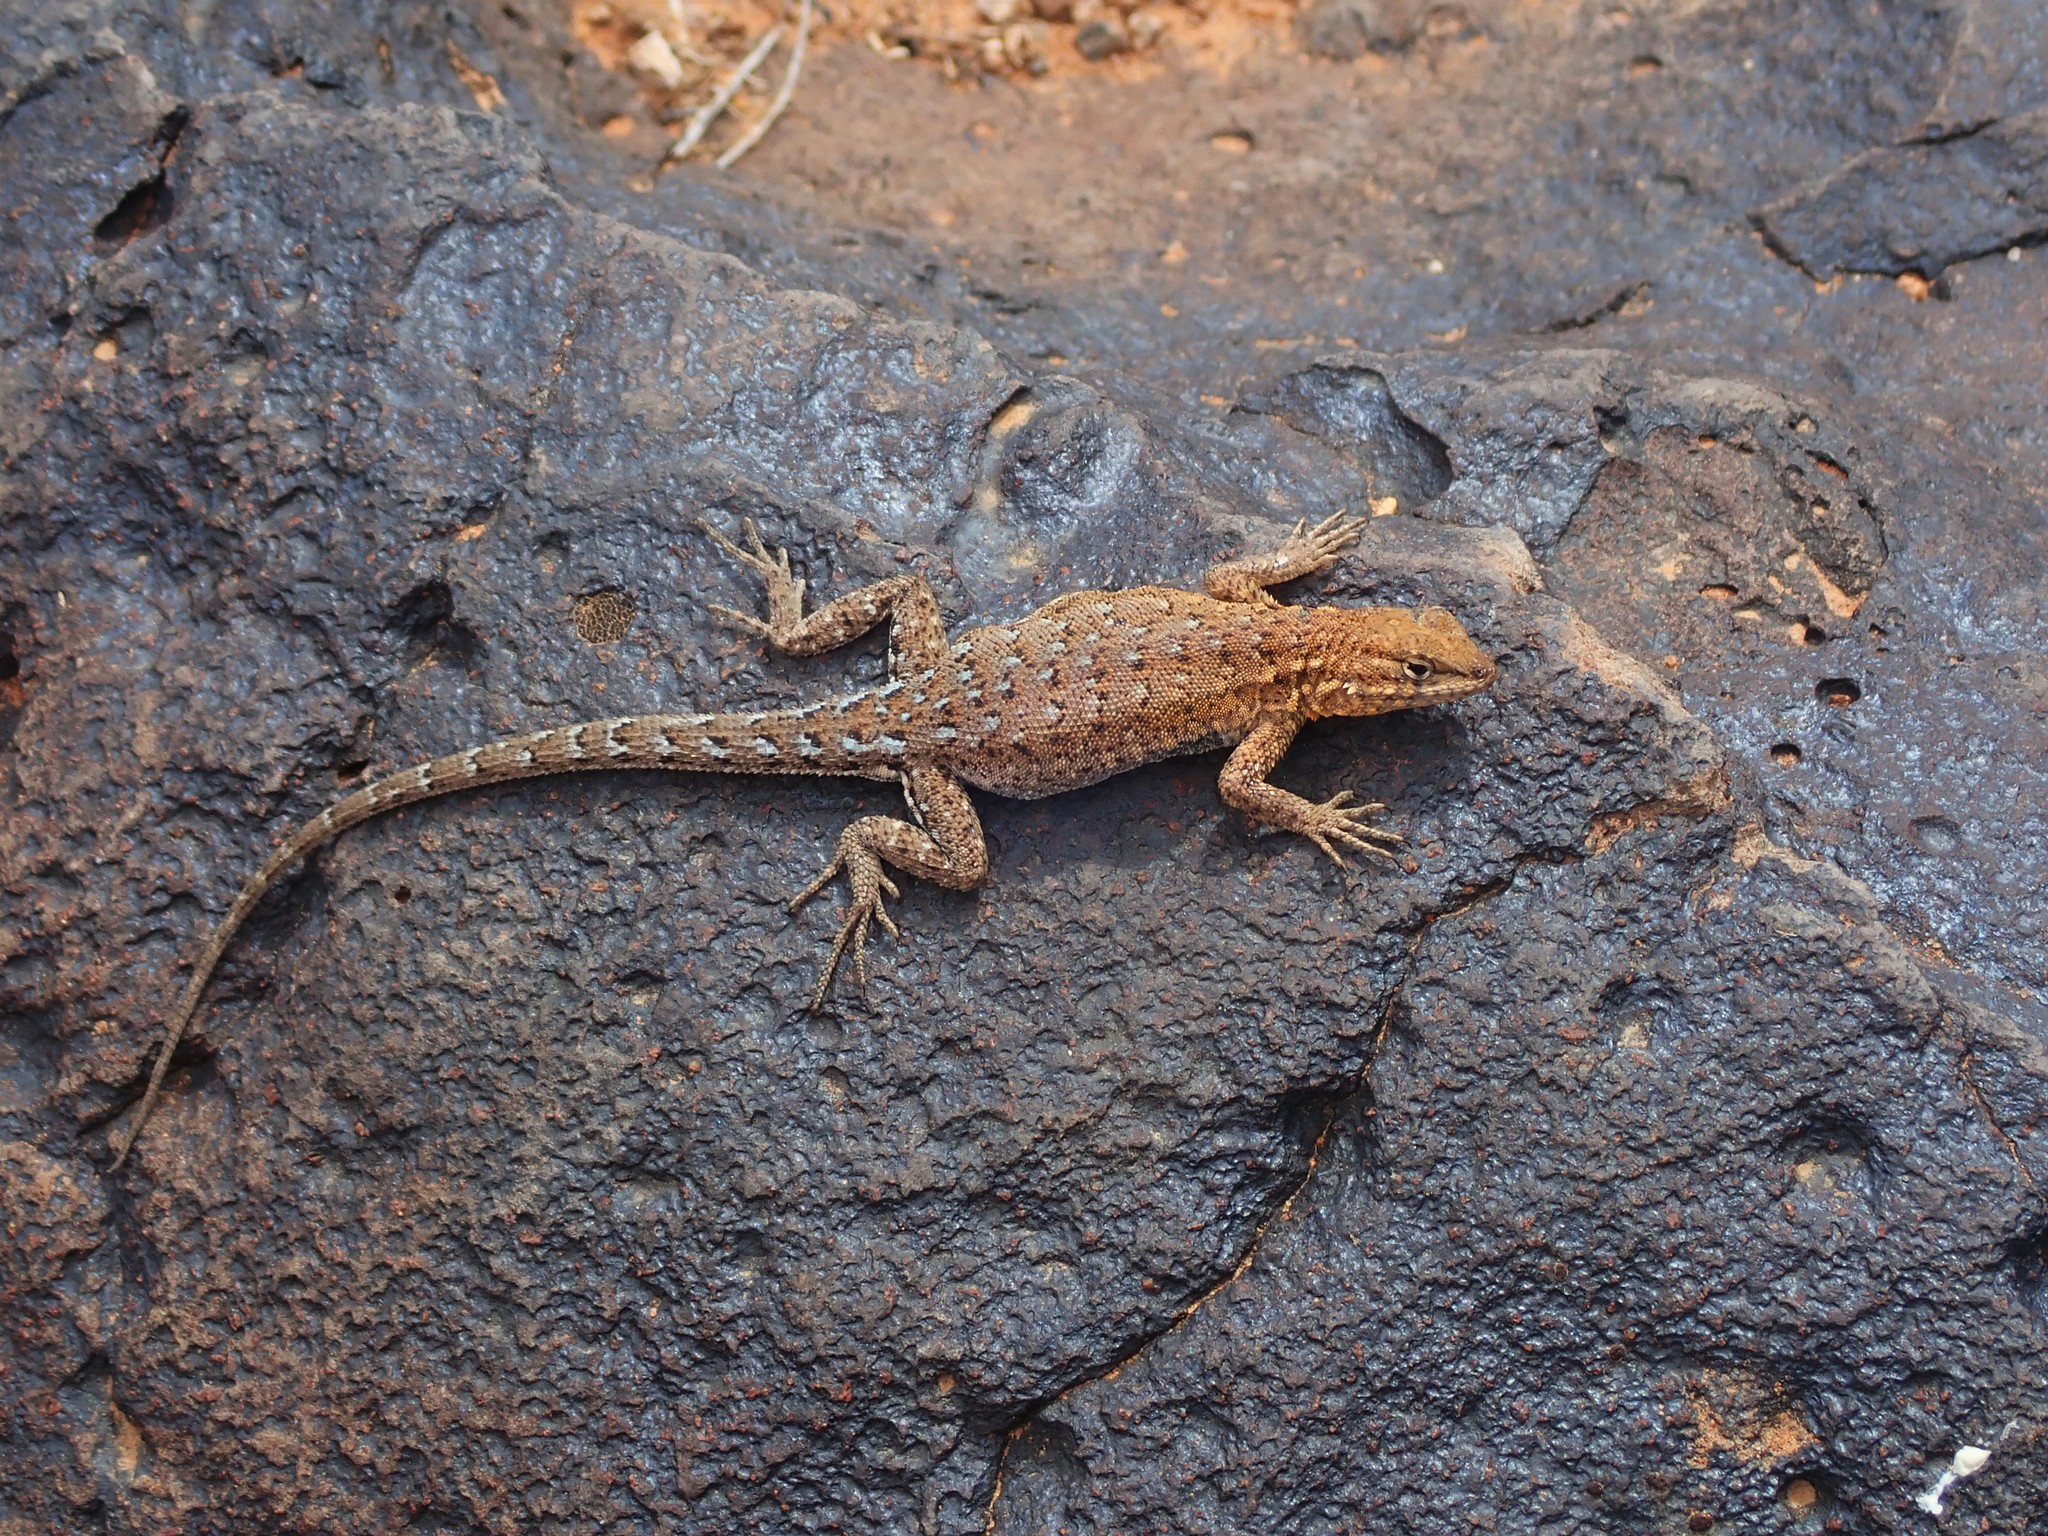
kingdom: Animalia
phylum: Chordata
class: Squamata
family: Phrynosomatidae
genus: Uta
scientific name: Uta stansburiana
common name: Side-blotched lizard
